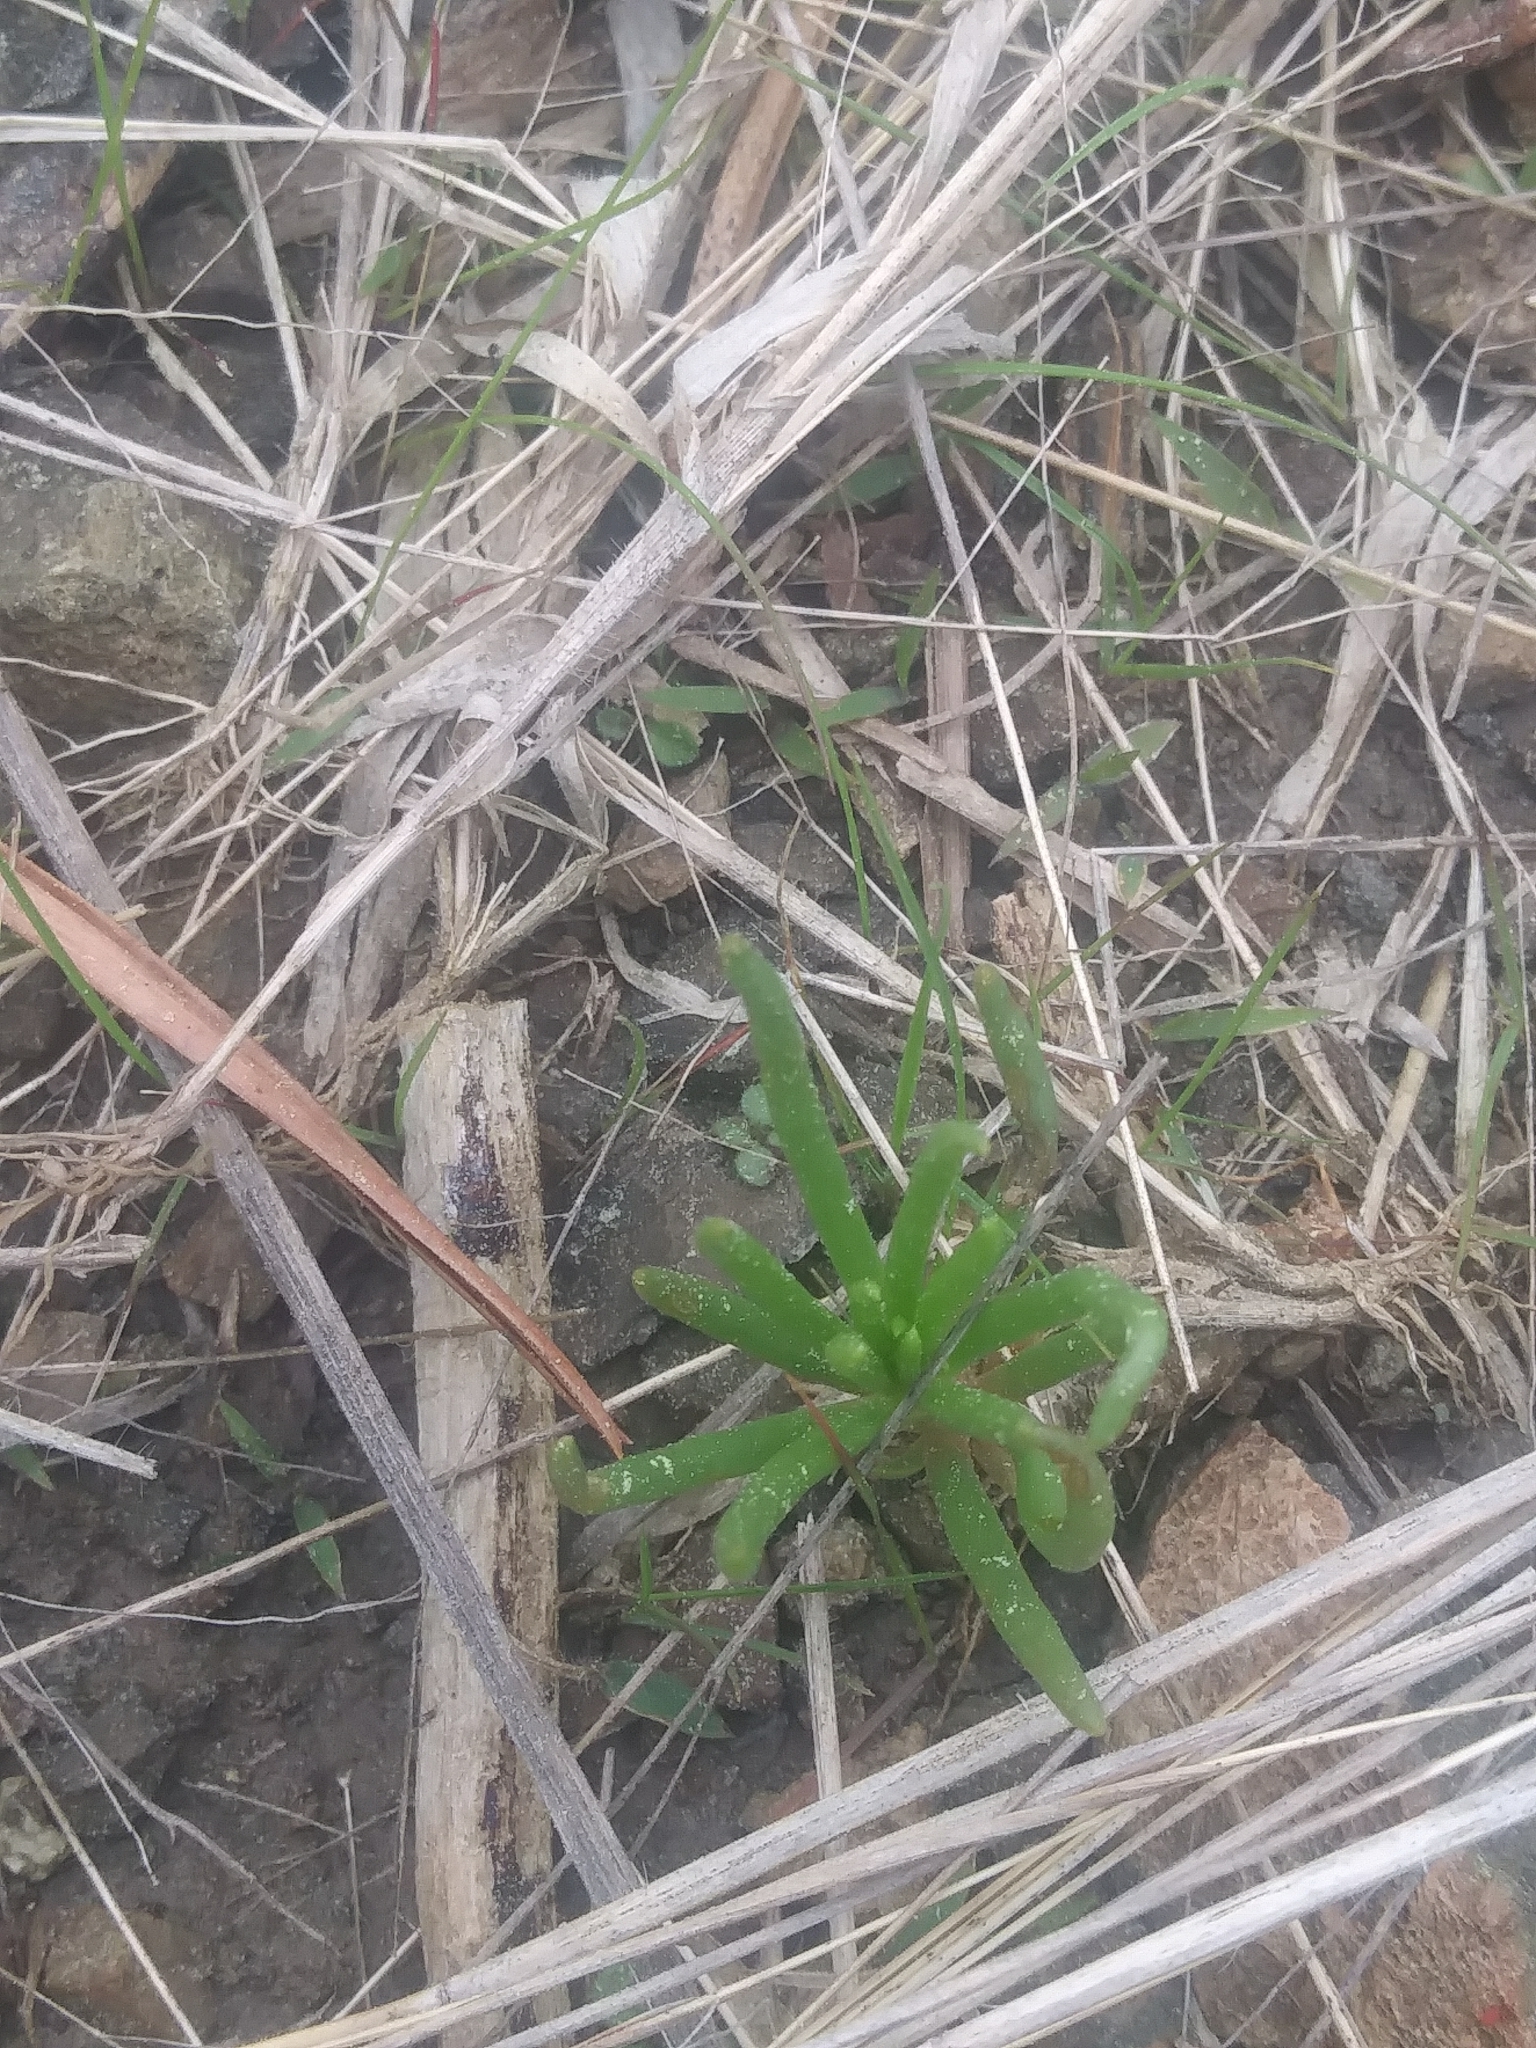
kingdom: Plantae
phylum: Tracheophyta
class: Magnoliopsida
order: Caryophyllales
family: Montiaceae
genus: Phemeranthus
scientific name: Phemeranthus teretifolius
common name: Quill fameflower
